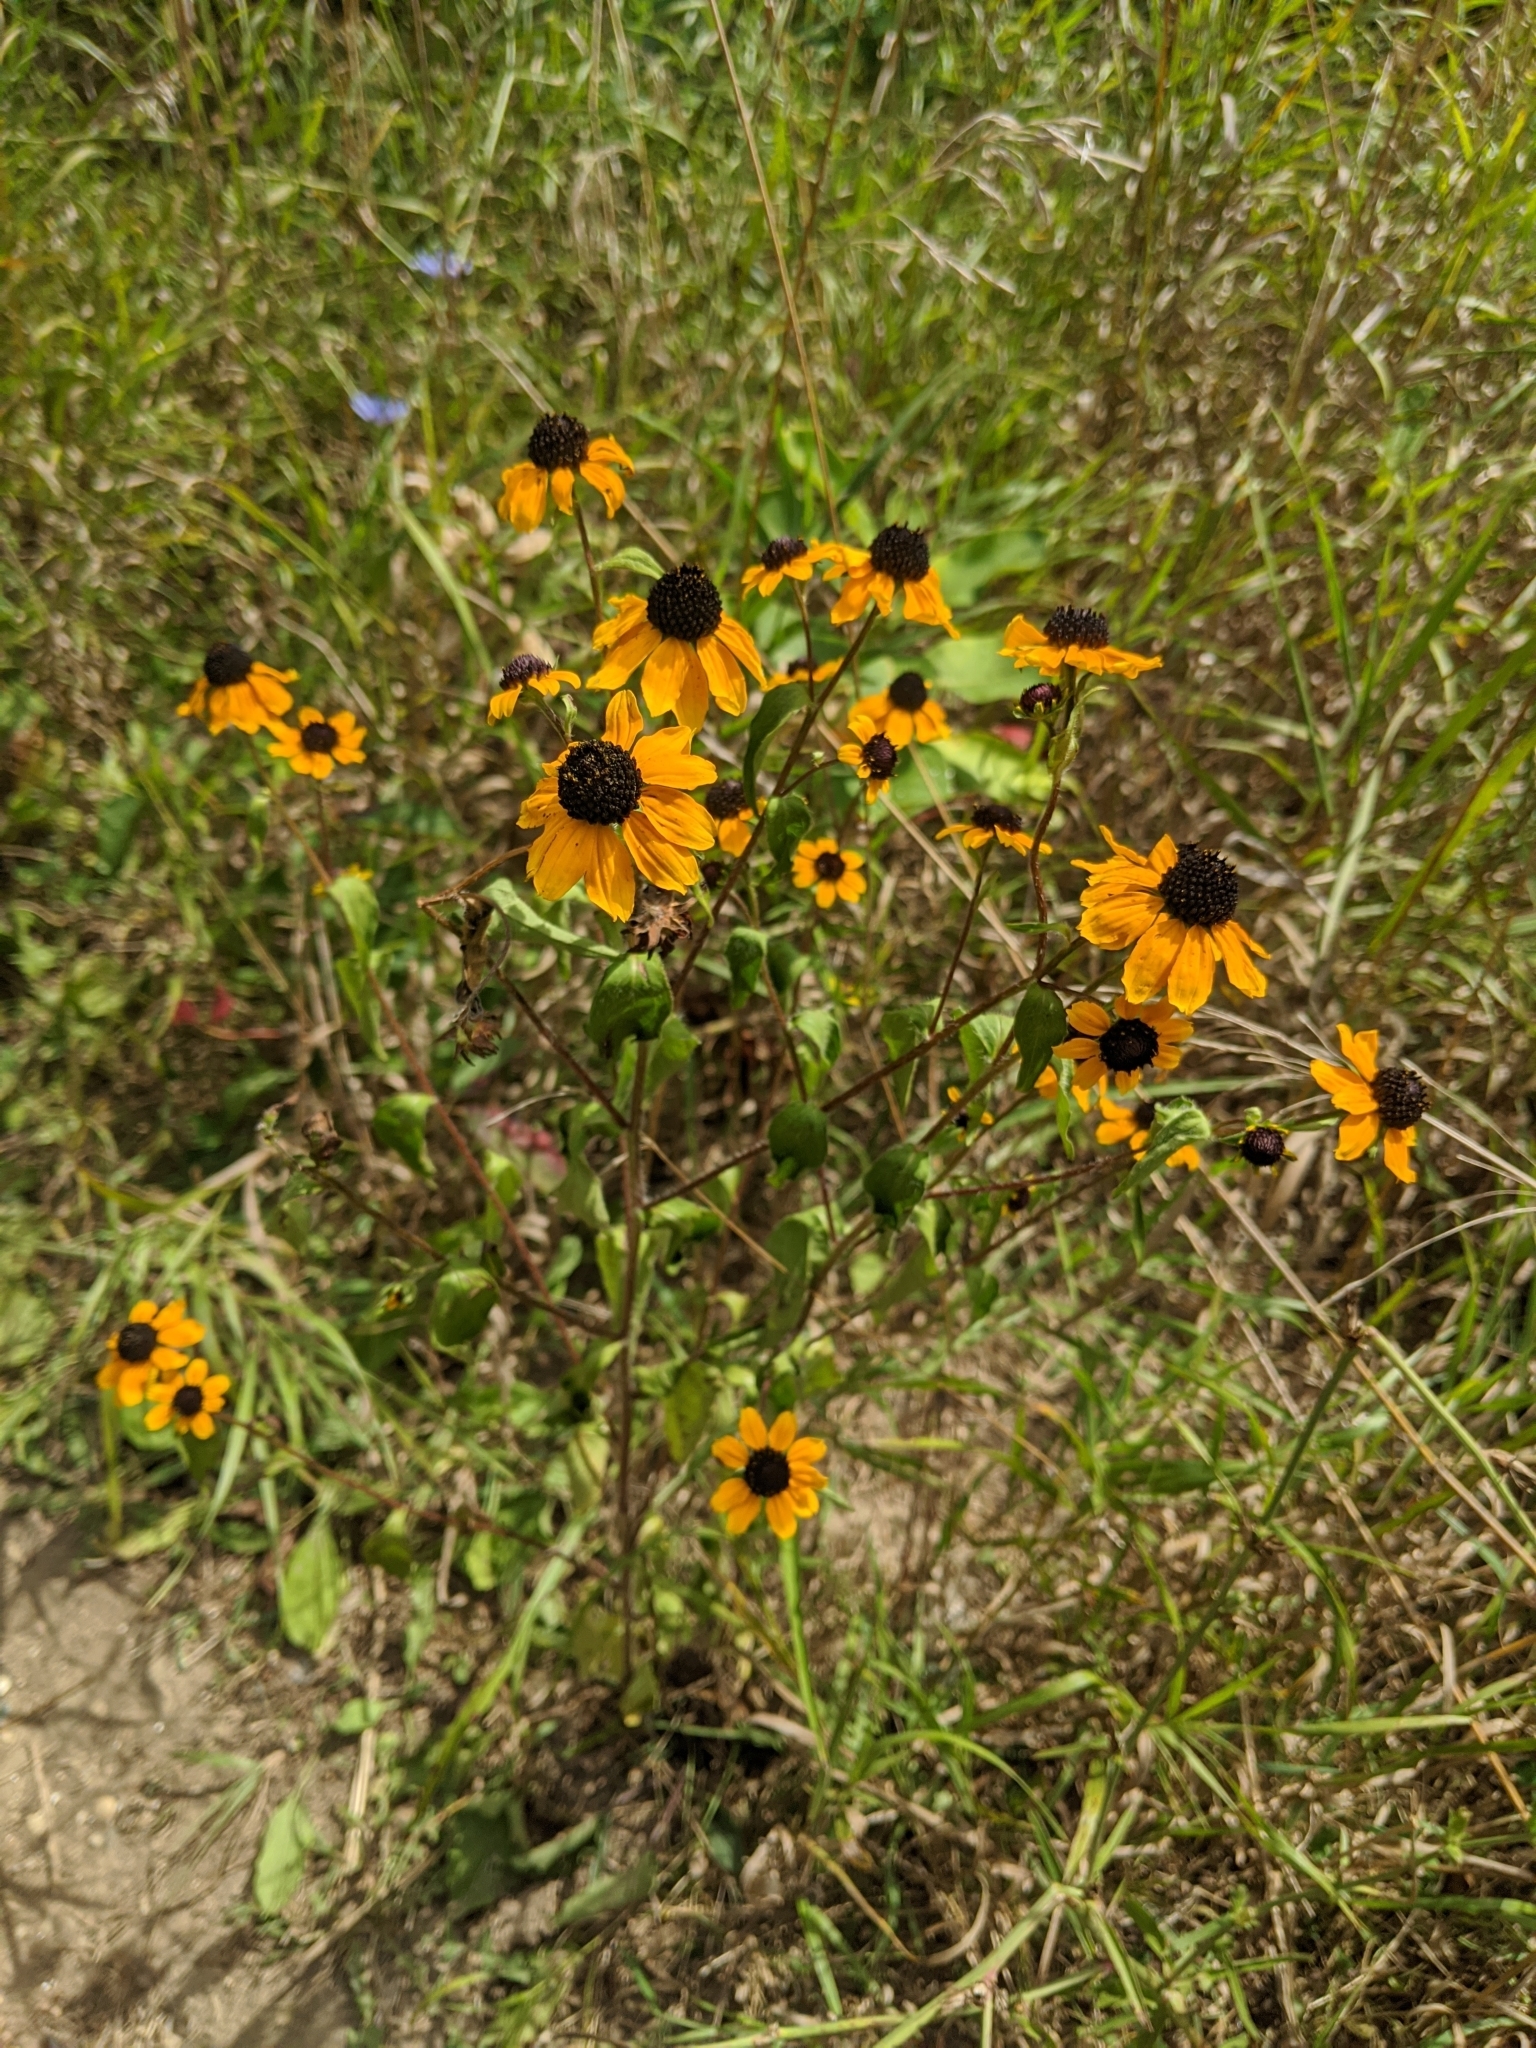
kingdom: Plantae
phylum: Tracheophyta
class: Magnoliopsida
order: Asterales
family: Asteraceae
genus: Rudbeckia
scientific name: Rudbeckia triloba
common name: Thin-leaved coneflower
